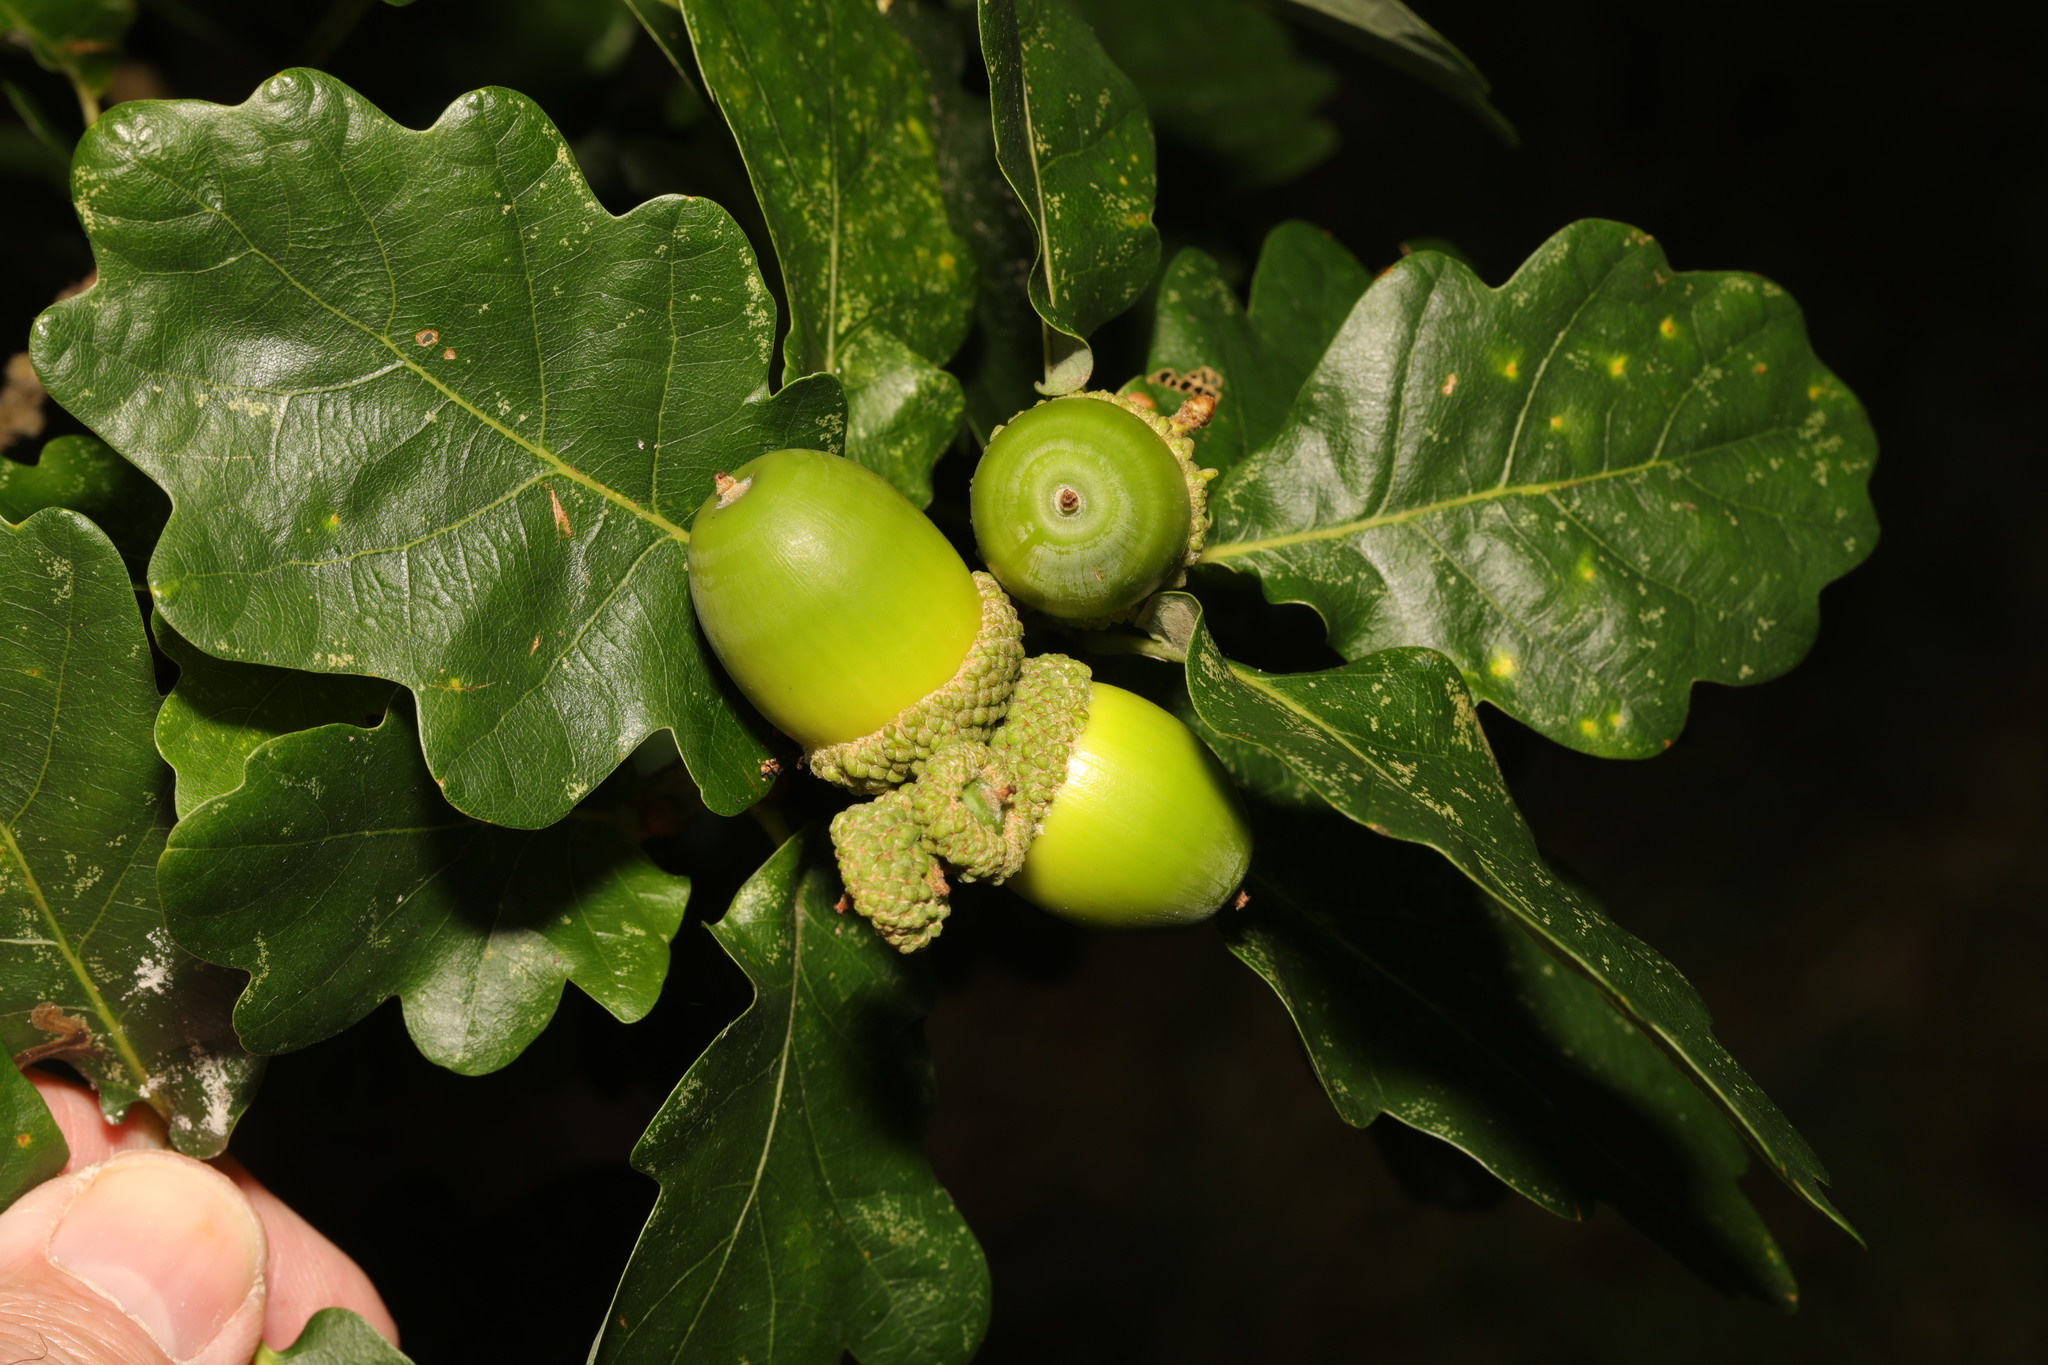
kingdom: Plantae
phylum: Tracheophyta
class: Magnoliopsida
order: Fagales
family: Fagaceae
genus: Quercus
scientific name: Quercus petraea
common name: Sessile oak
